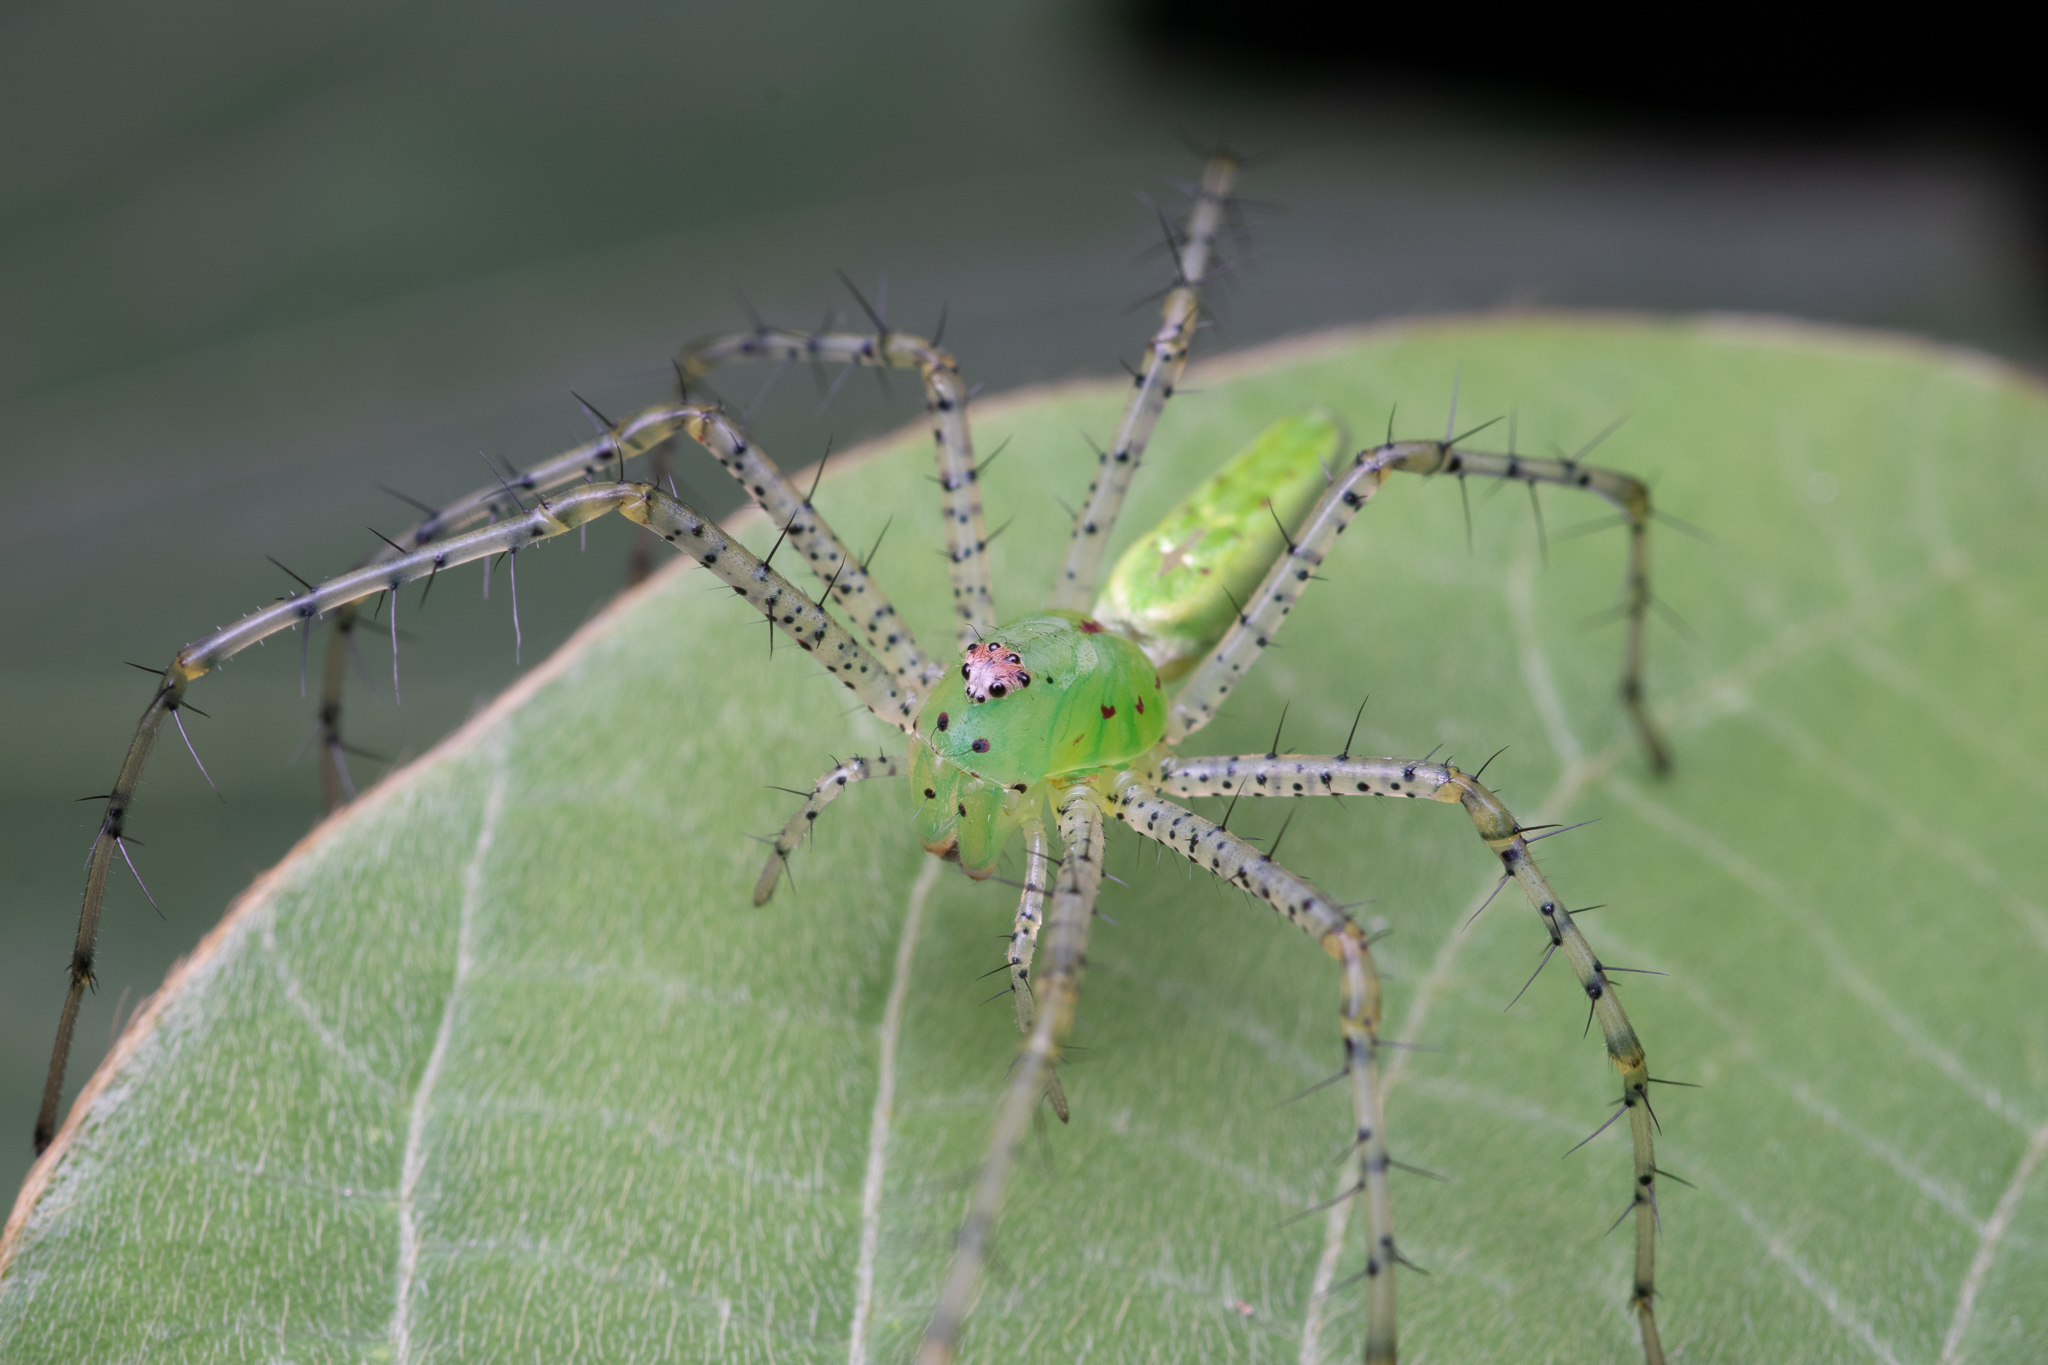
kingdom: Animalia
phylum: Arthropoda
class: Arachnida
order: Araneae
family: Oxyopidae
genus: Peucetia
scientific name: Peucetia viridans
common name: Lynx spiders
